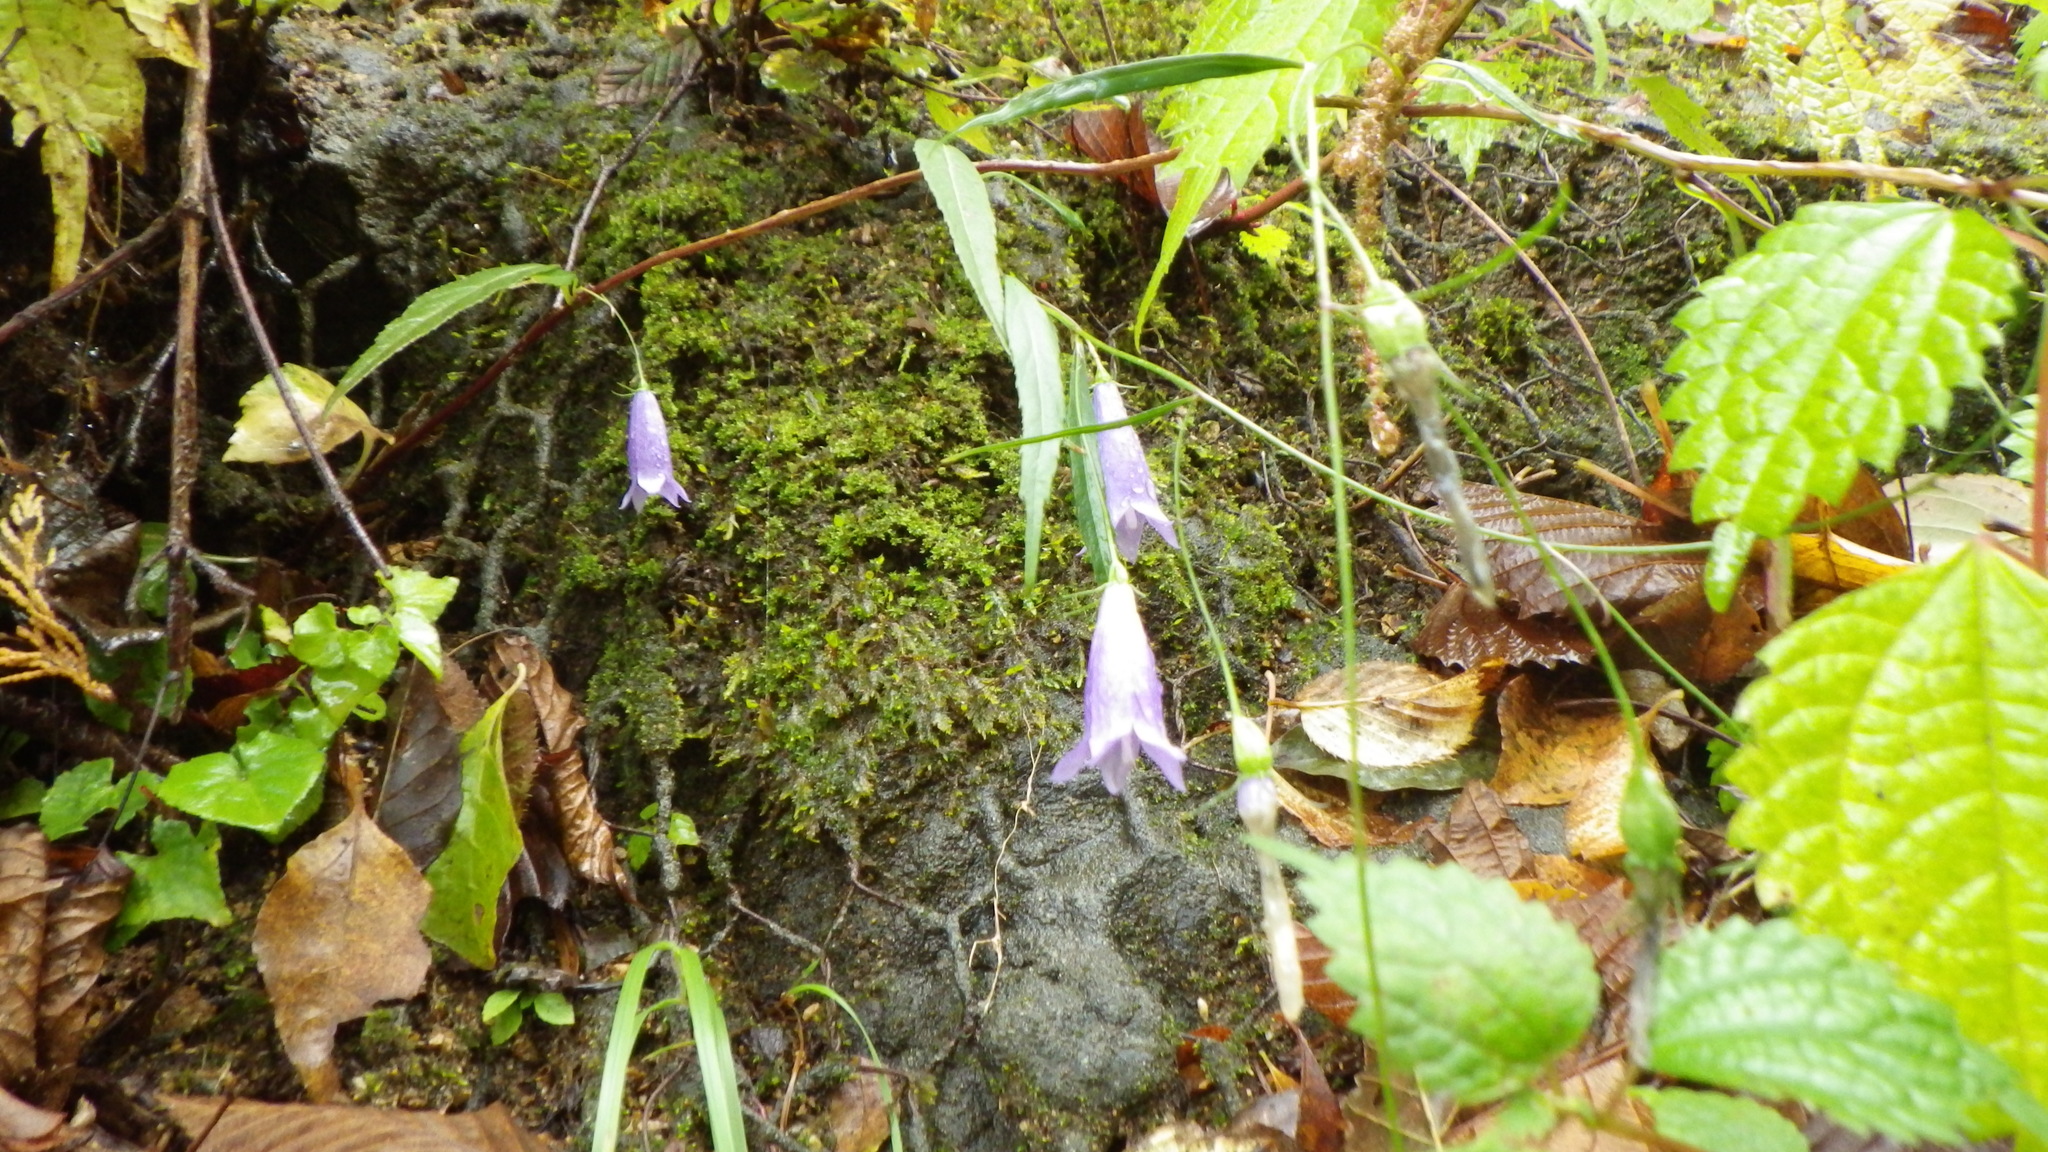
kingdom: Plantae
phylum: Tracheophyta
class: Magnoliopsida
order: Asterales
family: Campanulaceae
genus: Adenophora
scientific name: Adenophora takedae
